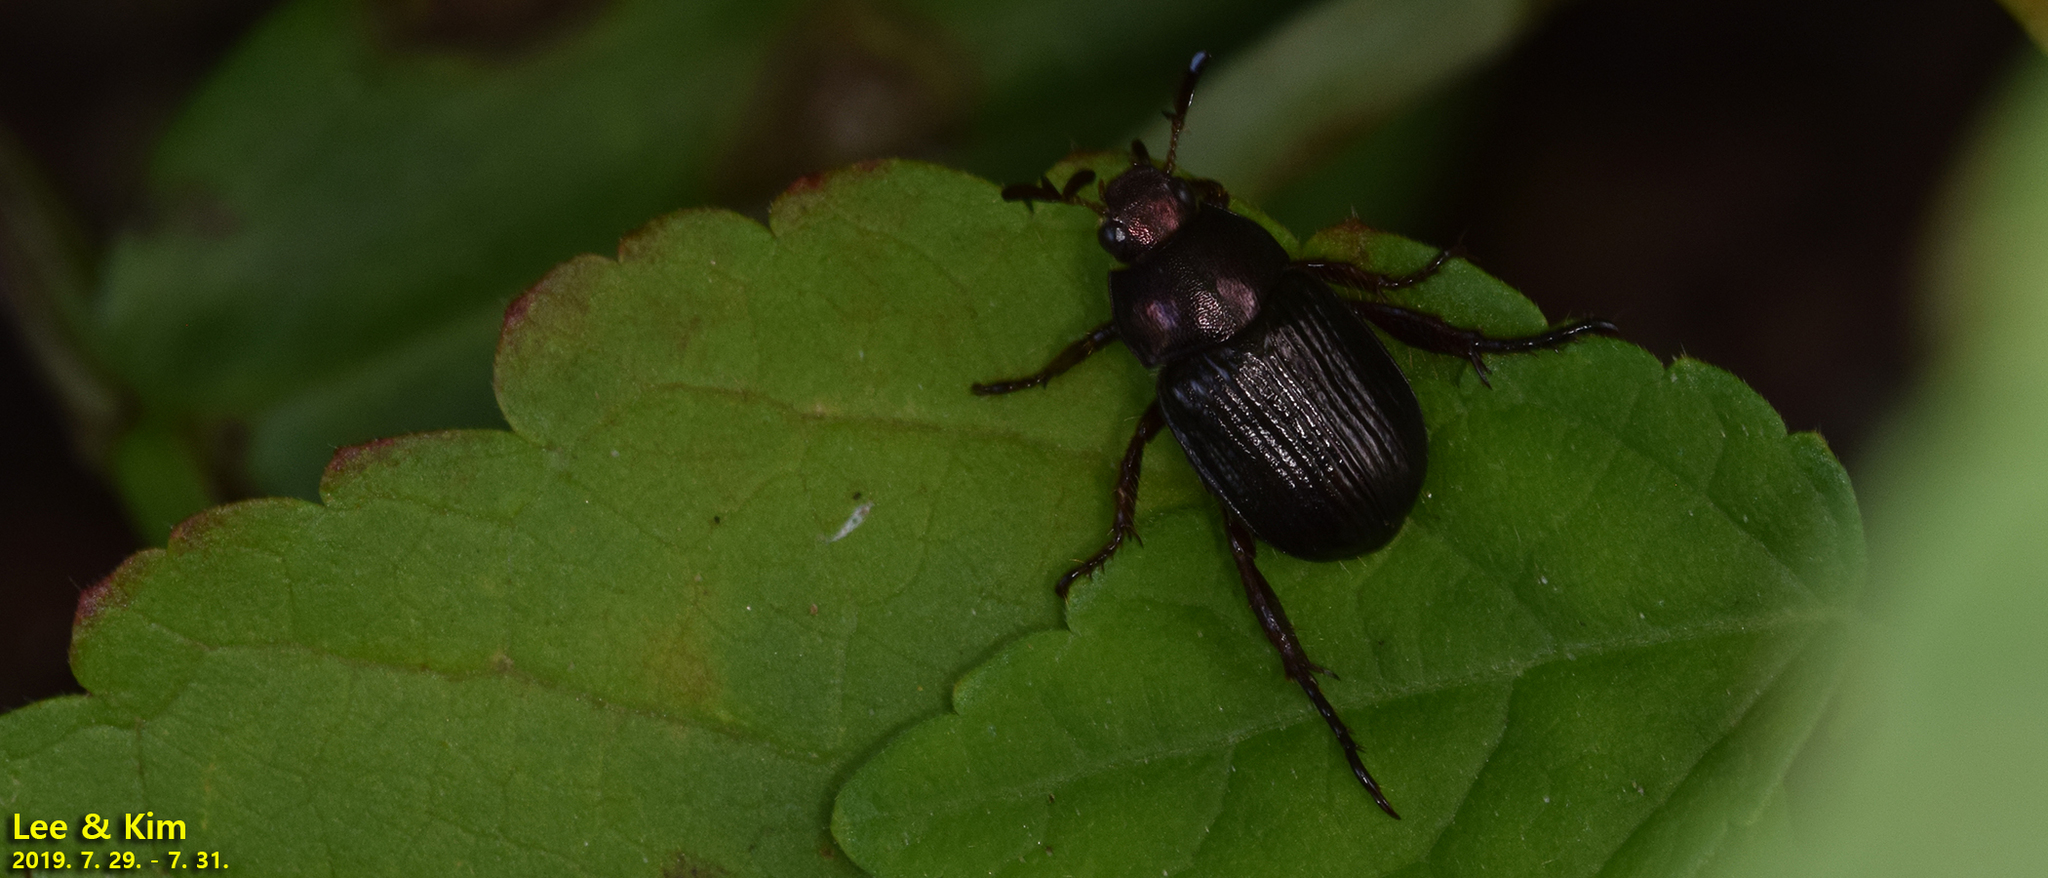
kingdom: Animalia
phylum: Arthropoda
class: Insecta
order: Coleoptera
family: Scarabaeidae
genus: Exomala
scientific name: Exomala orientalis
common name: Oriental beetle
